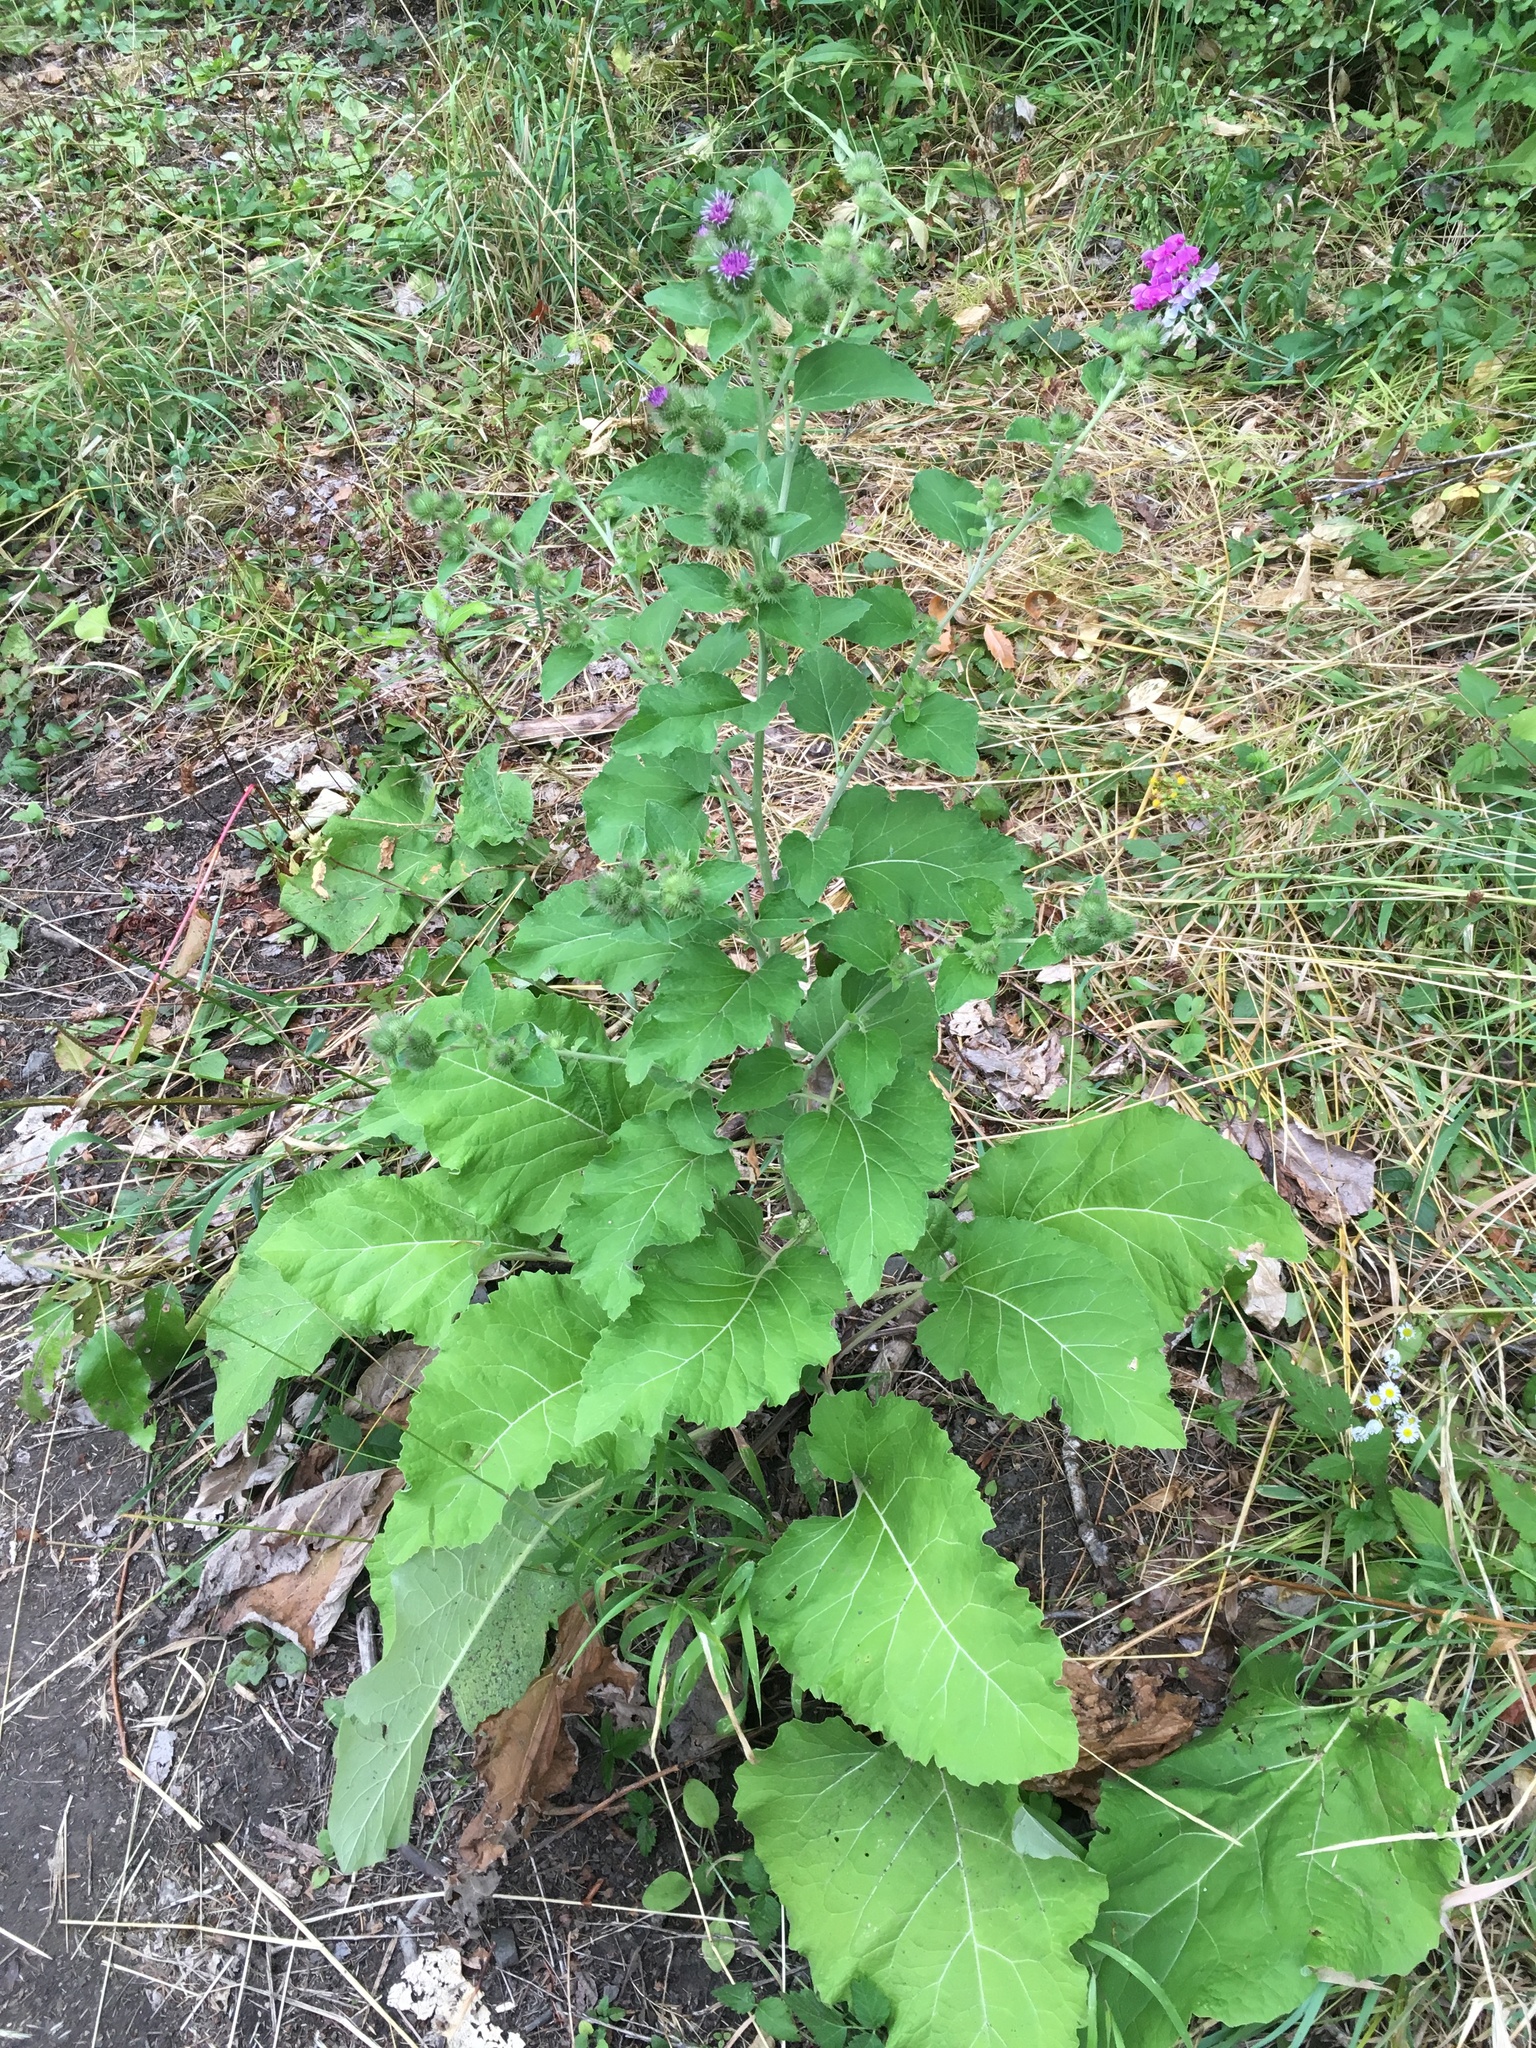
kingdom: Plantae
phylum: Tracheophyta
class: Magnoliopsida
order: Asterales
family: Asteraceae
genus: Arctium
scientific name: Arctium minus
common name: Lesser burdock
